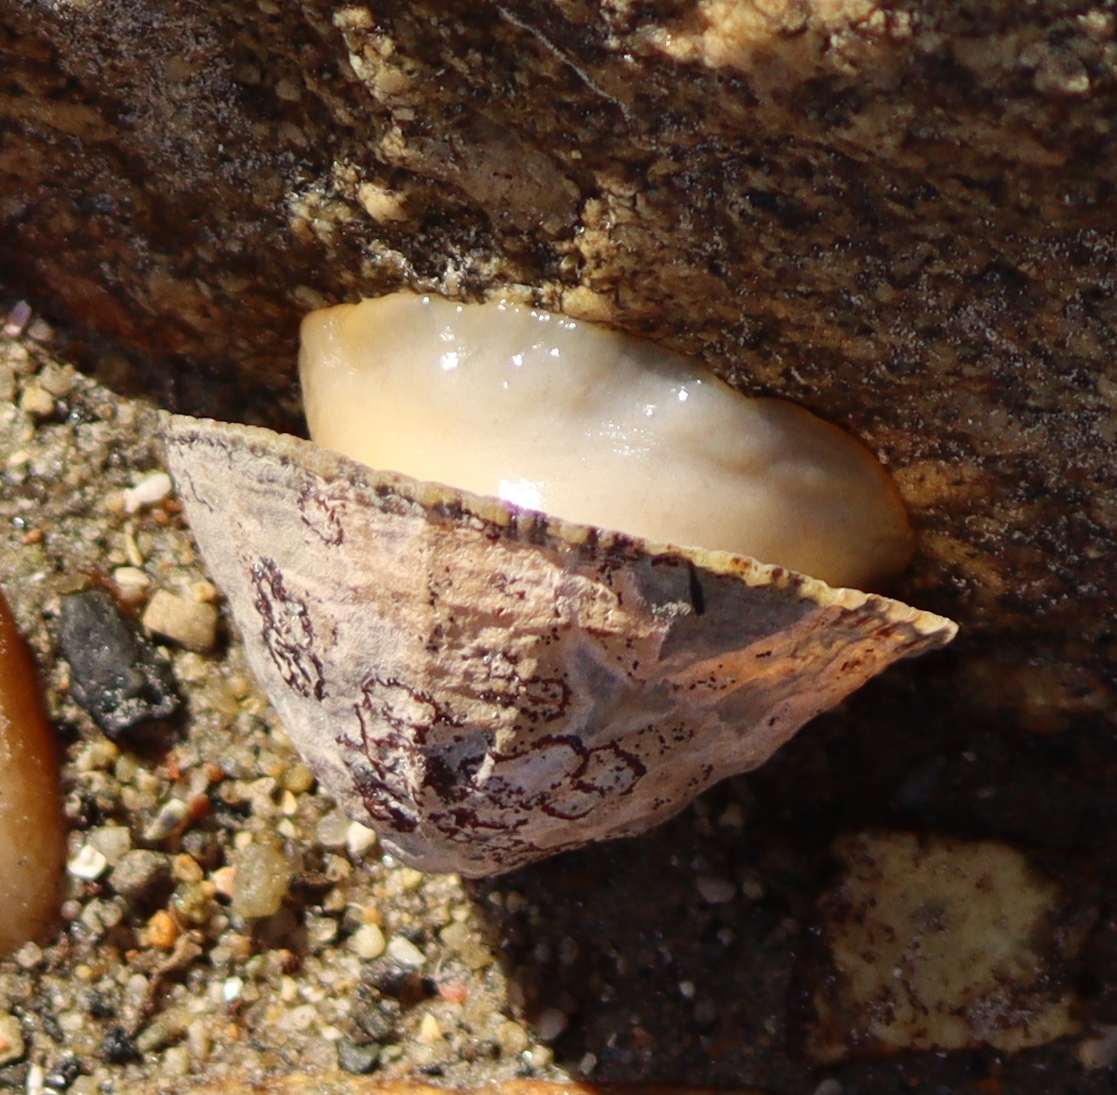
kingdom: Animalia
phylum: Mollusca
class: Gastropoda
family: Patellidae
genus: Patella
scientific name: Patella vulgata
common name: Common limpet
